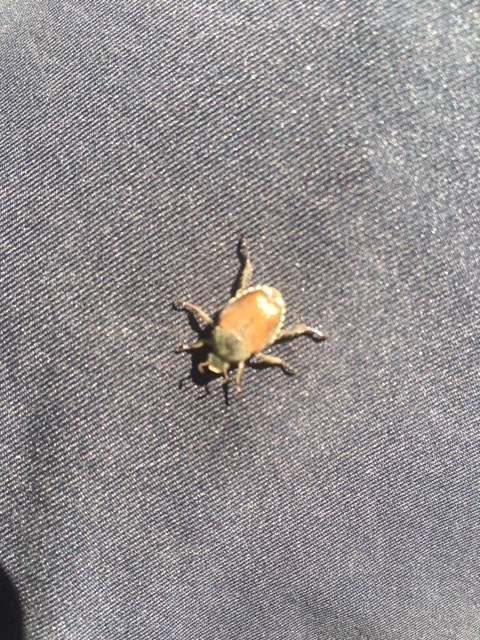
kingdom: Animalia
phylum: Arthropoda
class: Insecta
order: Coleoptera
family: Scarabaeidae
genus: Popillia
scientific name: Popillia japonica
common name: Japanese beetle
